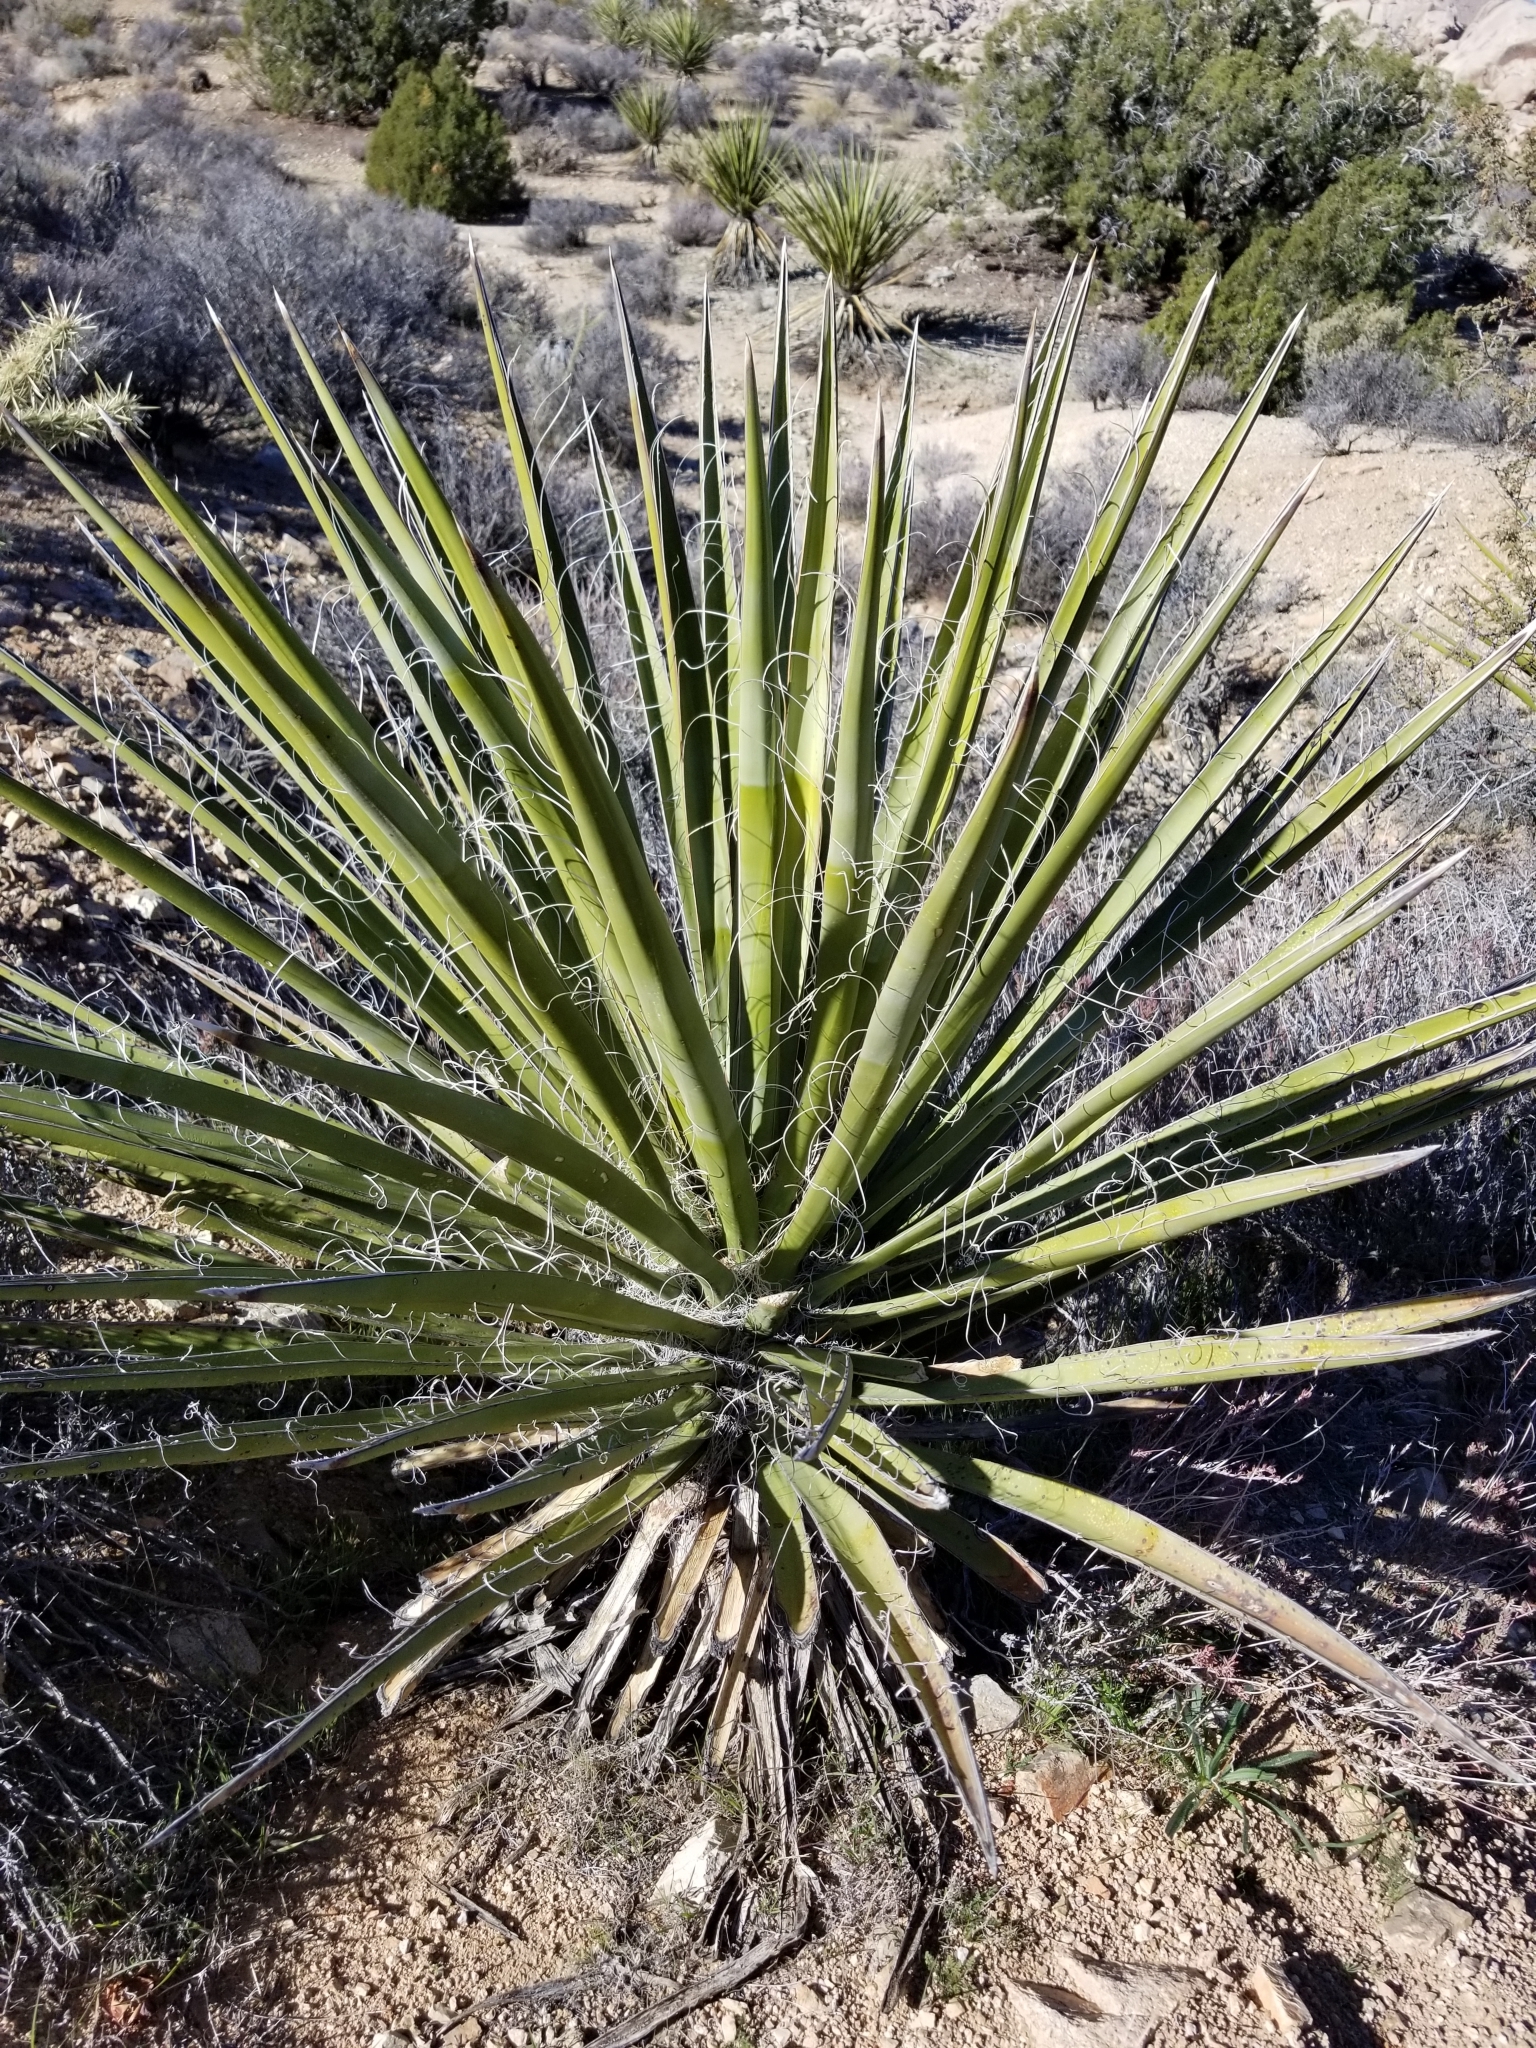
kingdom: Plantae
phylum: Tracheophyta
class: Liliopsida
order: Asparagales
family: Asparagaceae
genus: Yucca
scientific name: Yucca schidigera
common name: Mojave yucca
